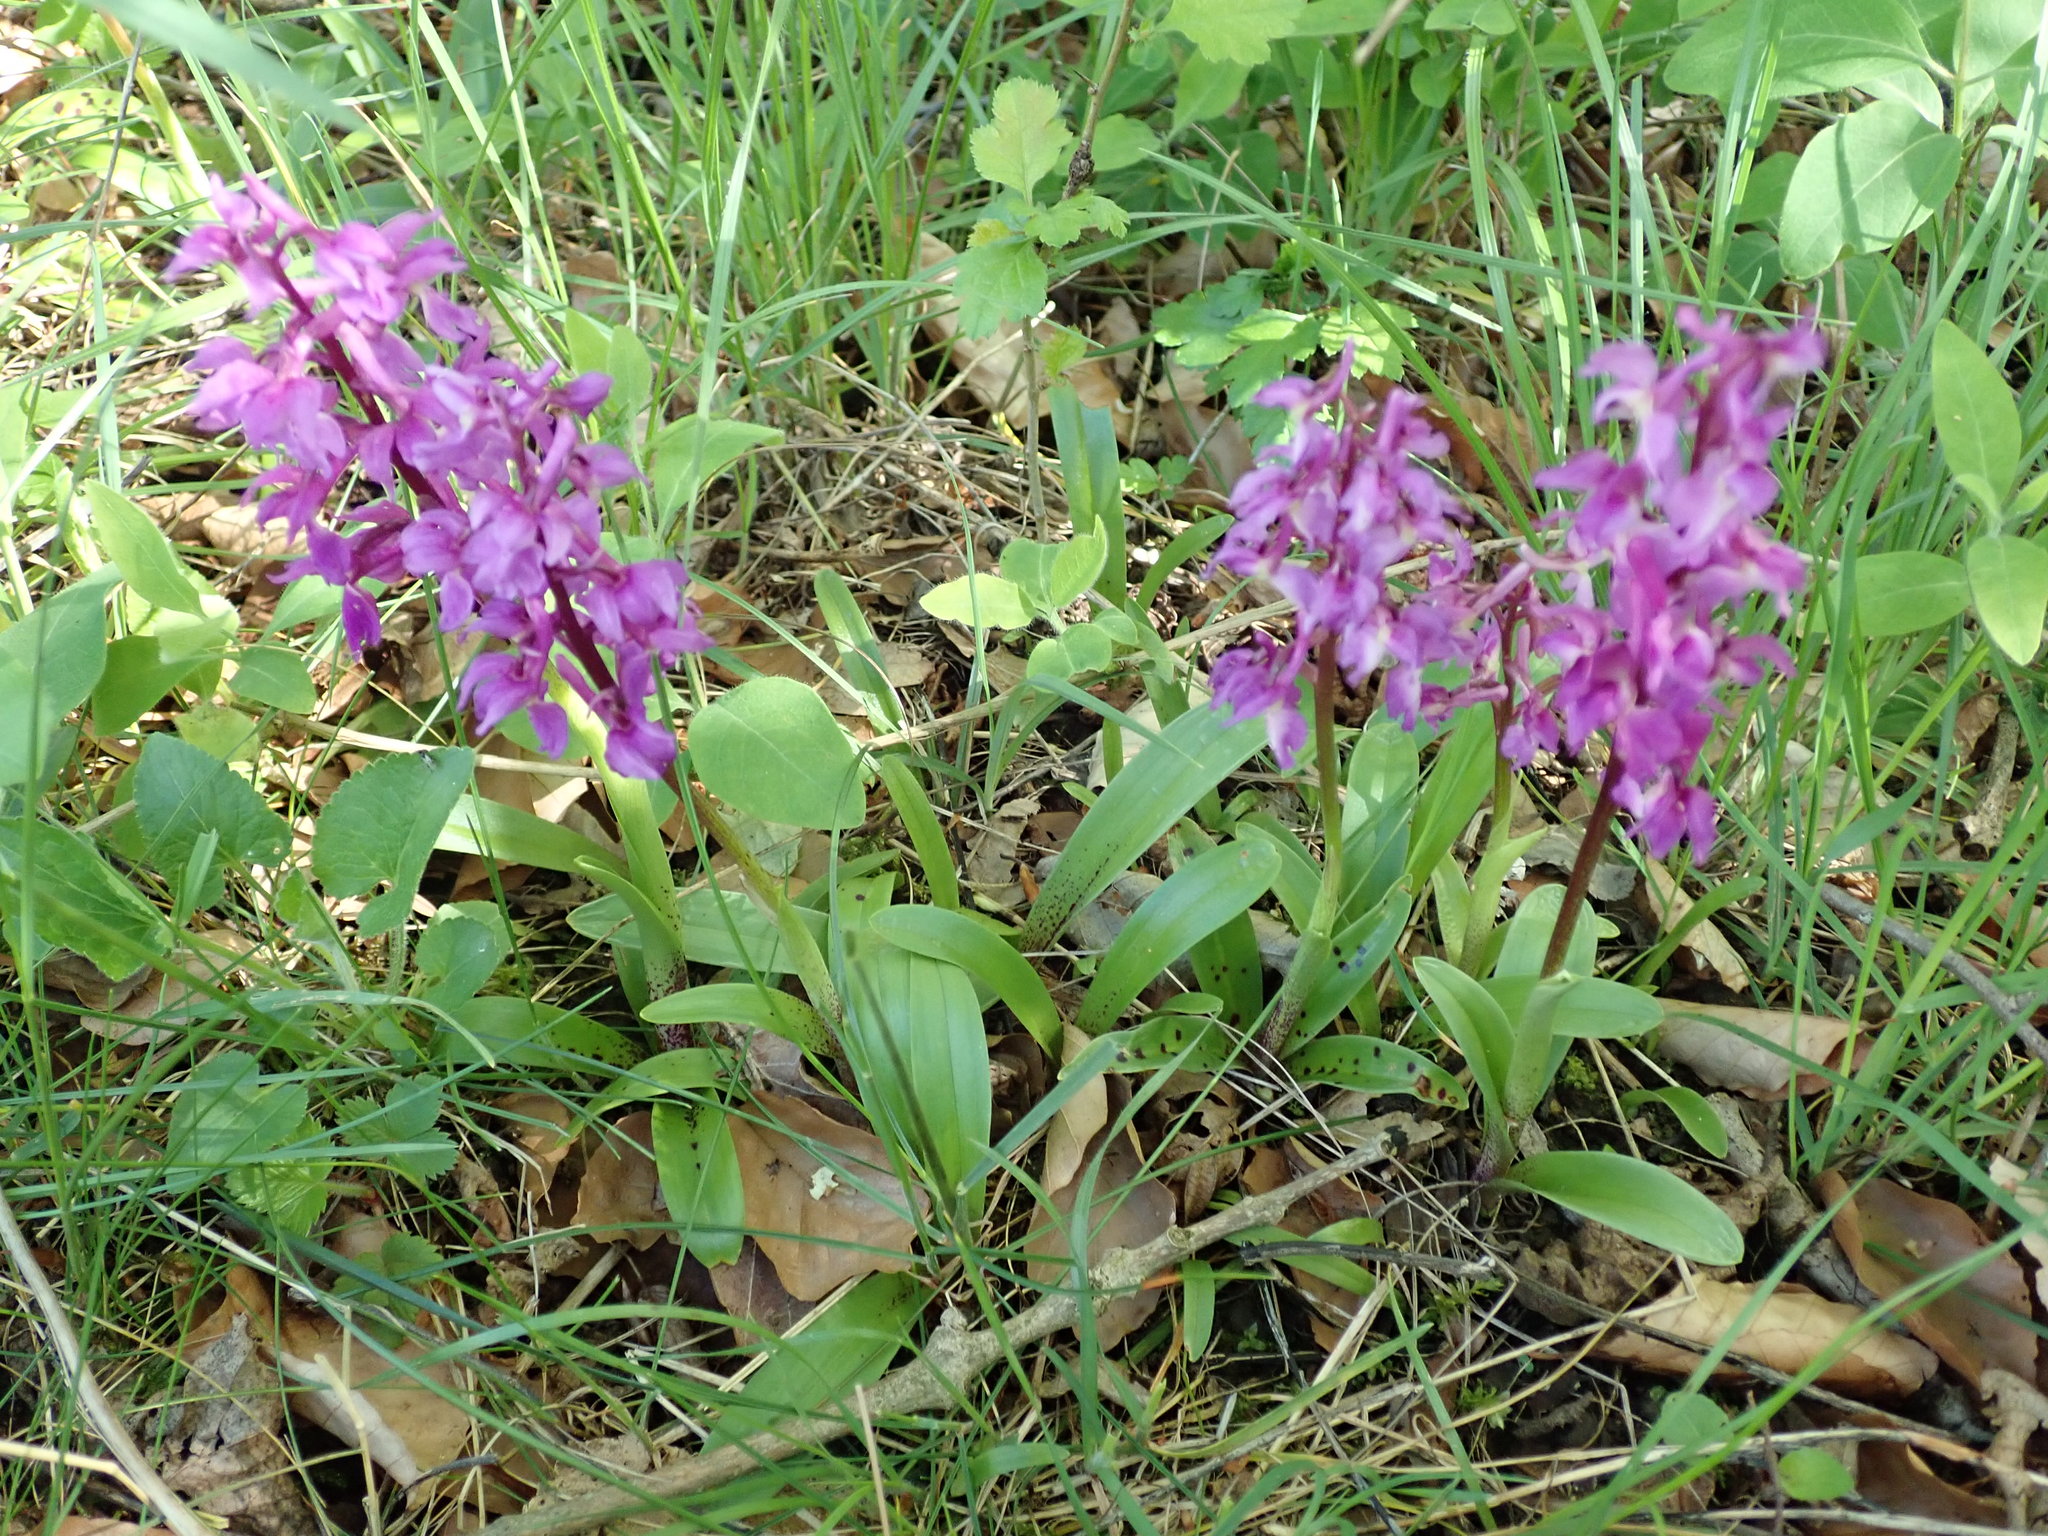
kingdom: Plantae
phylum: Tracheophyta
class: Liliopsida
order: Asparagales
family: Orchidaceae
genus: Orchis
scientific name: Orchis mascula
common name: Early-purple orchid
